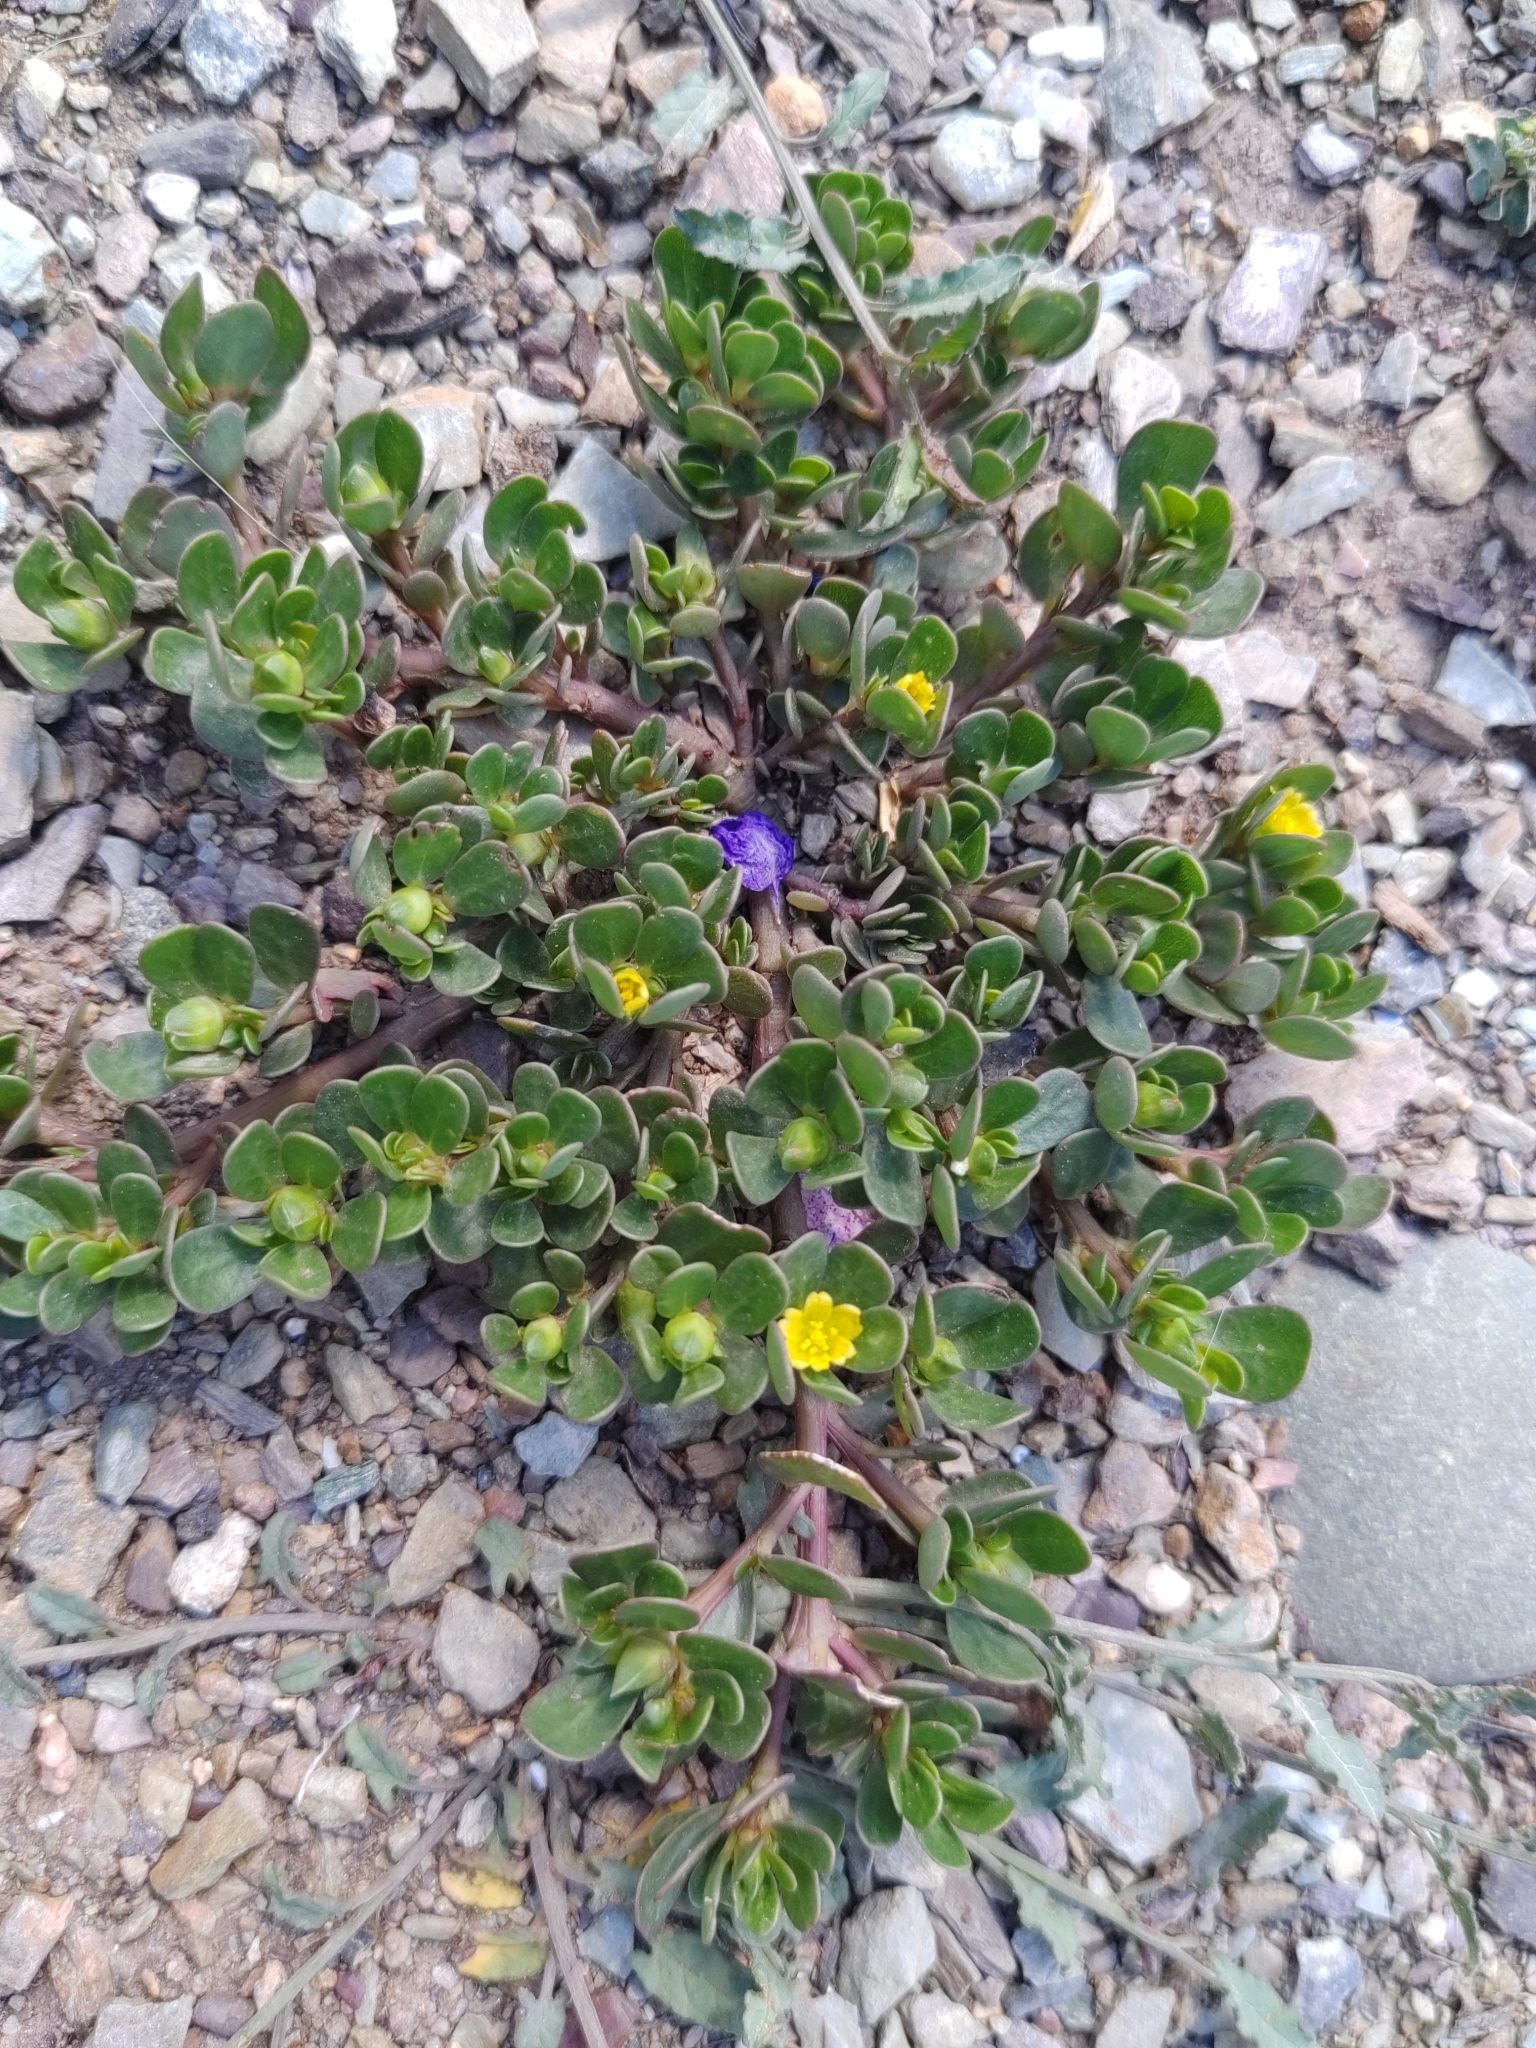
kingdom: Plantae
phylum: Tracheophyta
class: Magnoliopsida
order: Caryophyllales
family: Portulacaceae
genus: Portulaca
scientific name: Portulaca oleracea
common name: Common purslane
